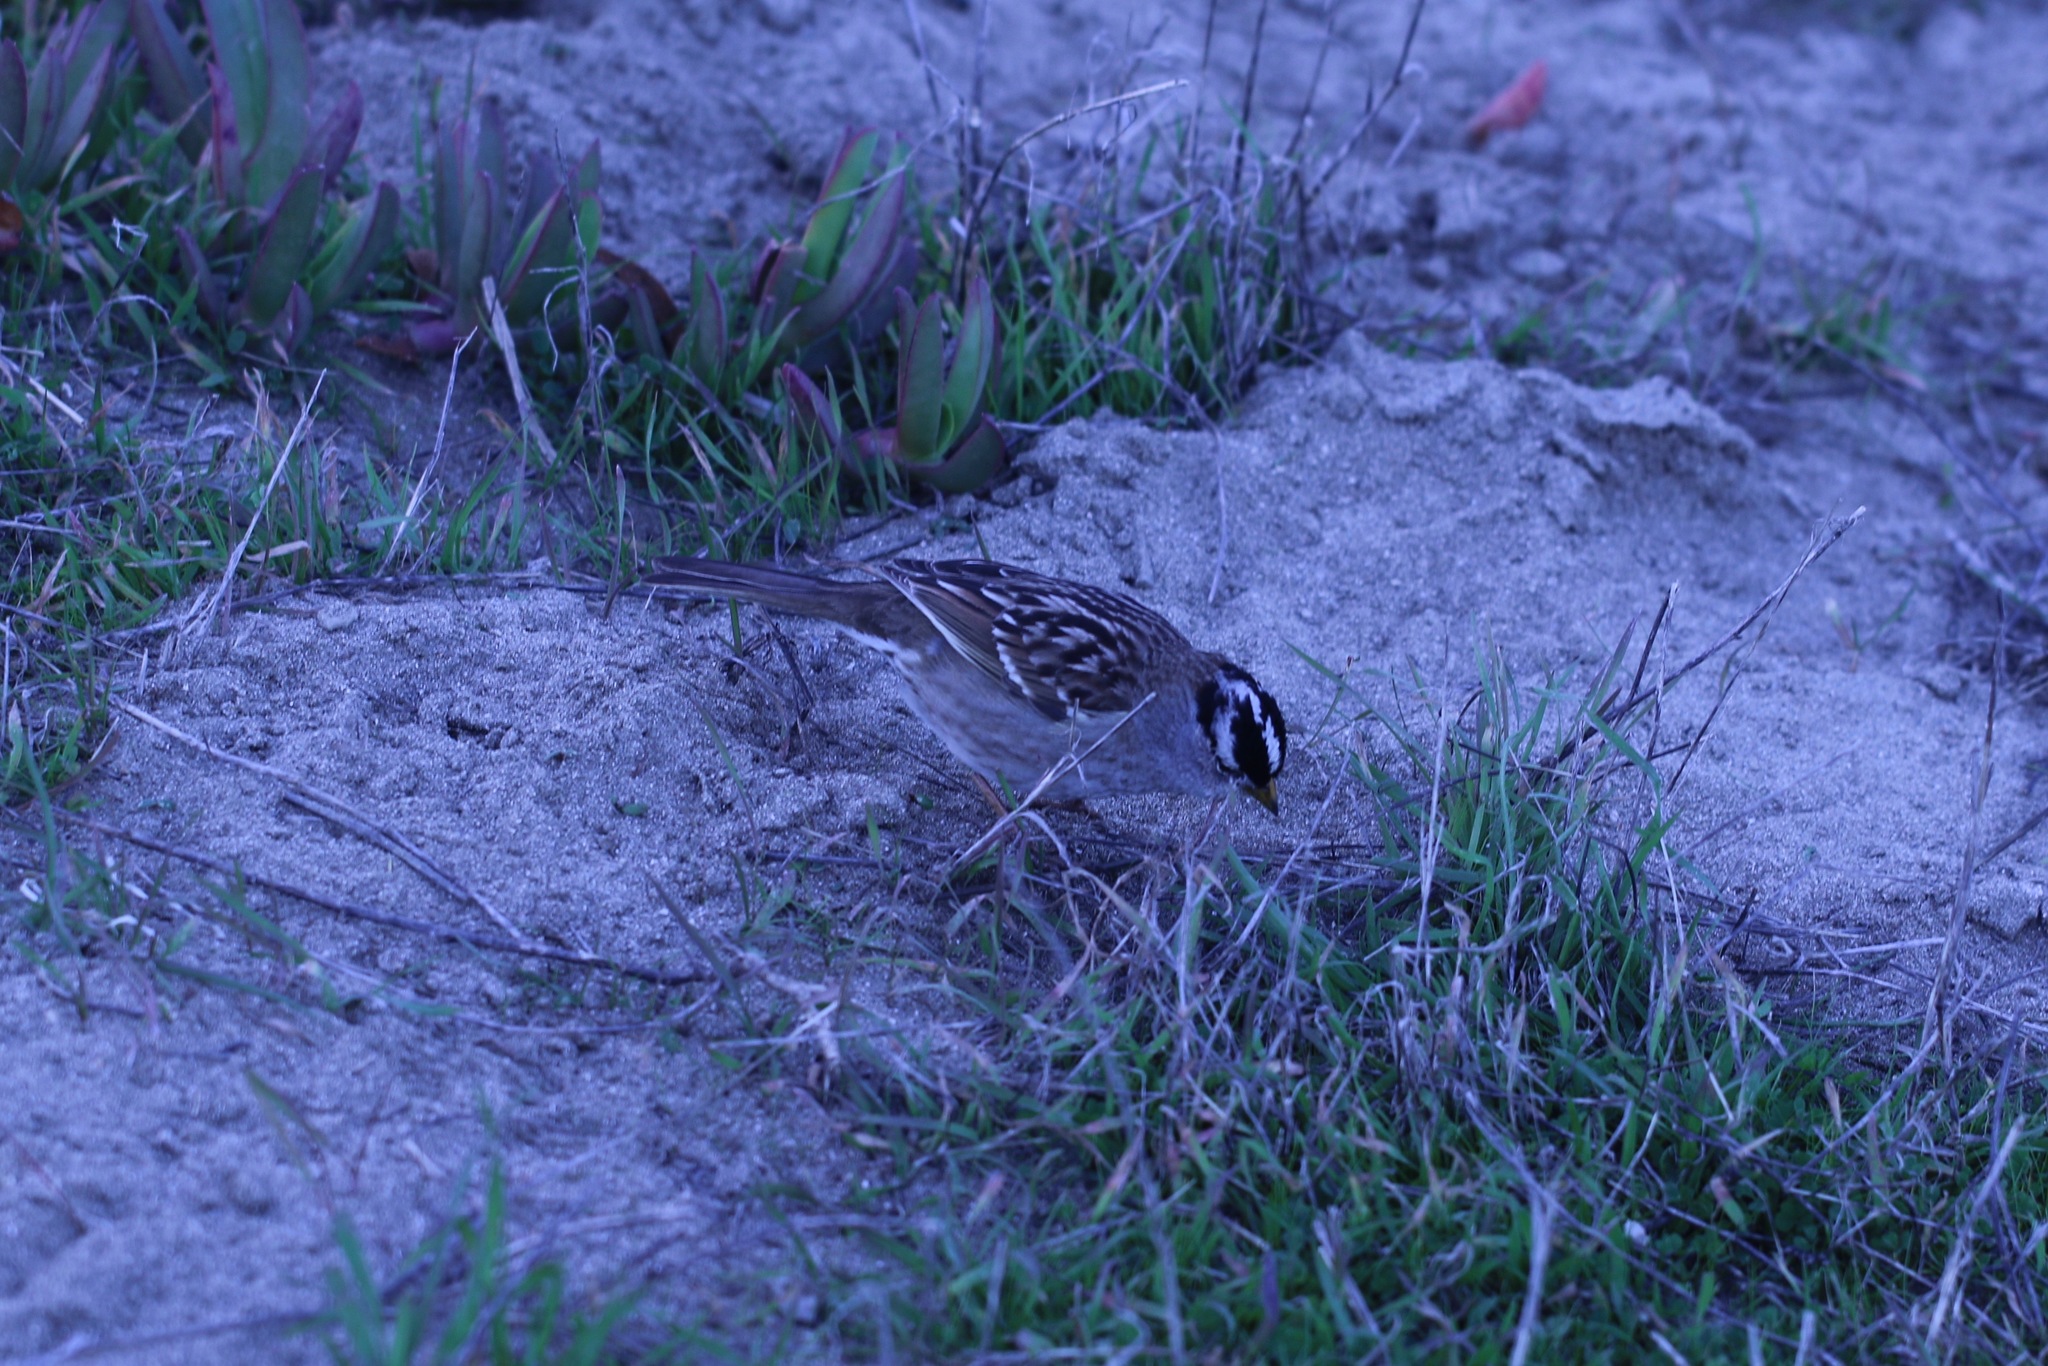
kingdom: Animalia
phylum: Chordata
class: Aves
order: Passeriformes
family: Passerellidae
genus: Zonotrichia
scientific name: Zonotrichia leucophrys
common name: White-crowned sparrow
